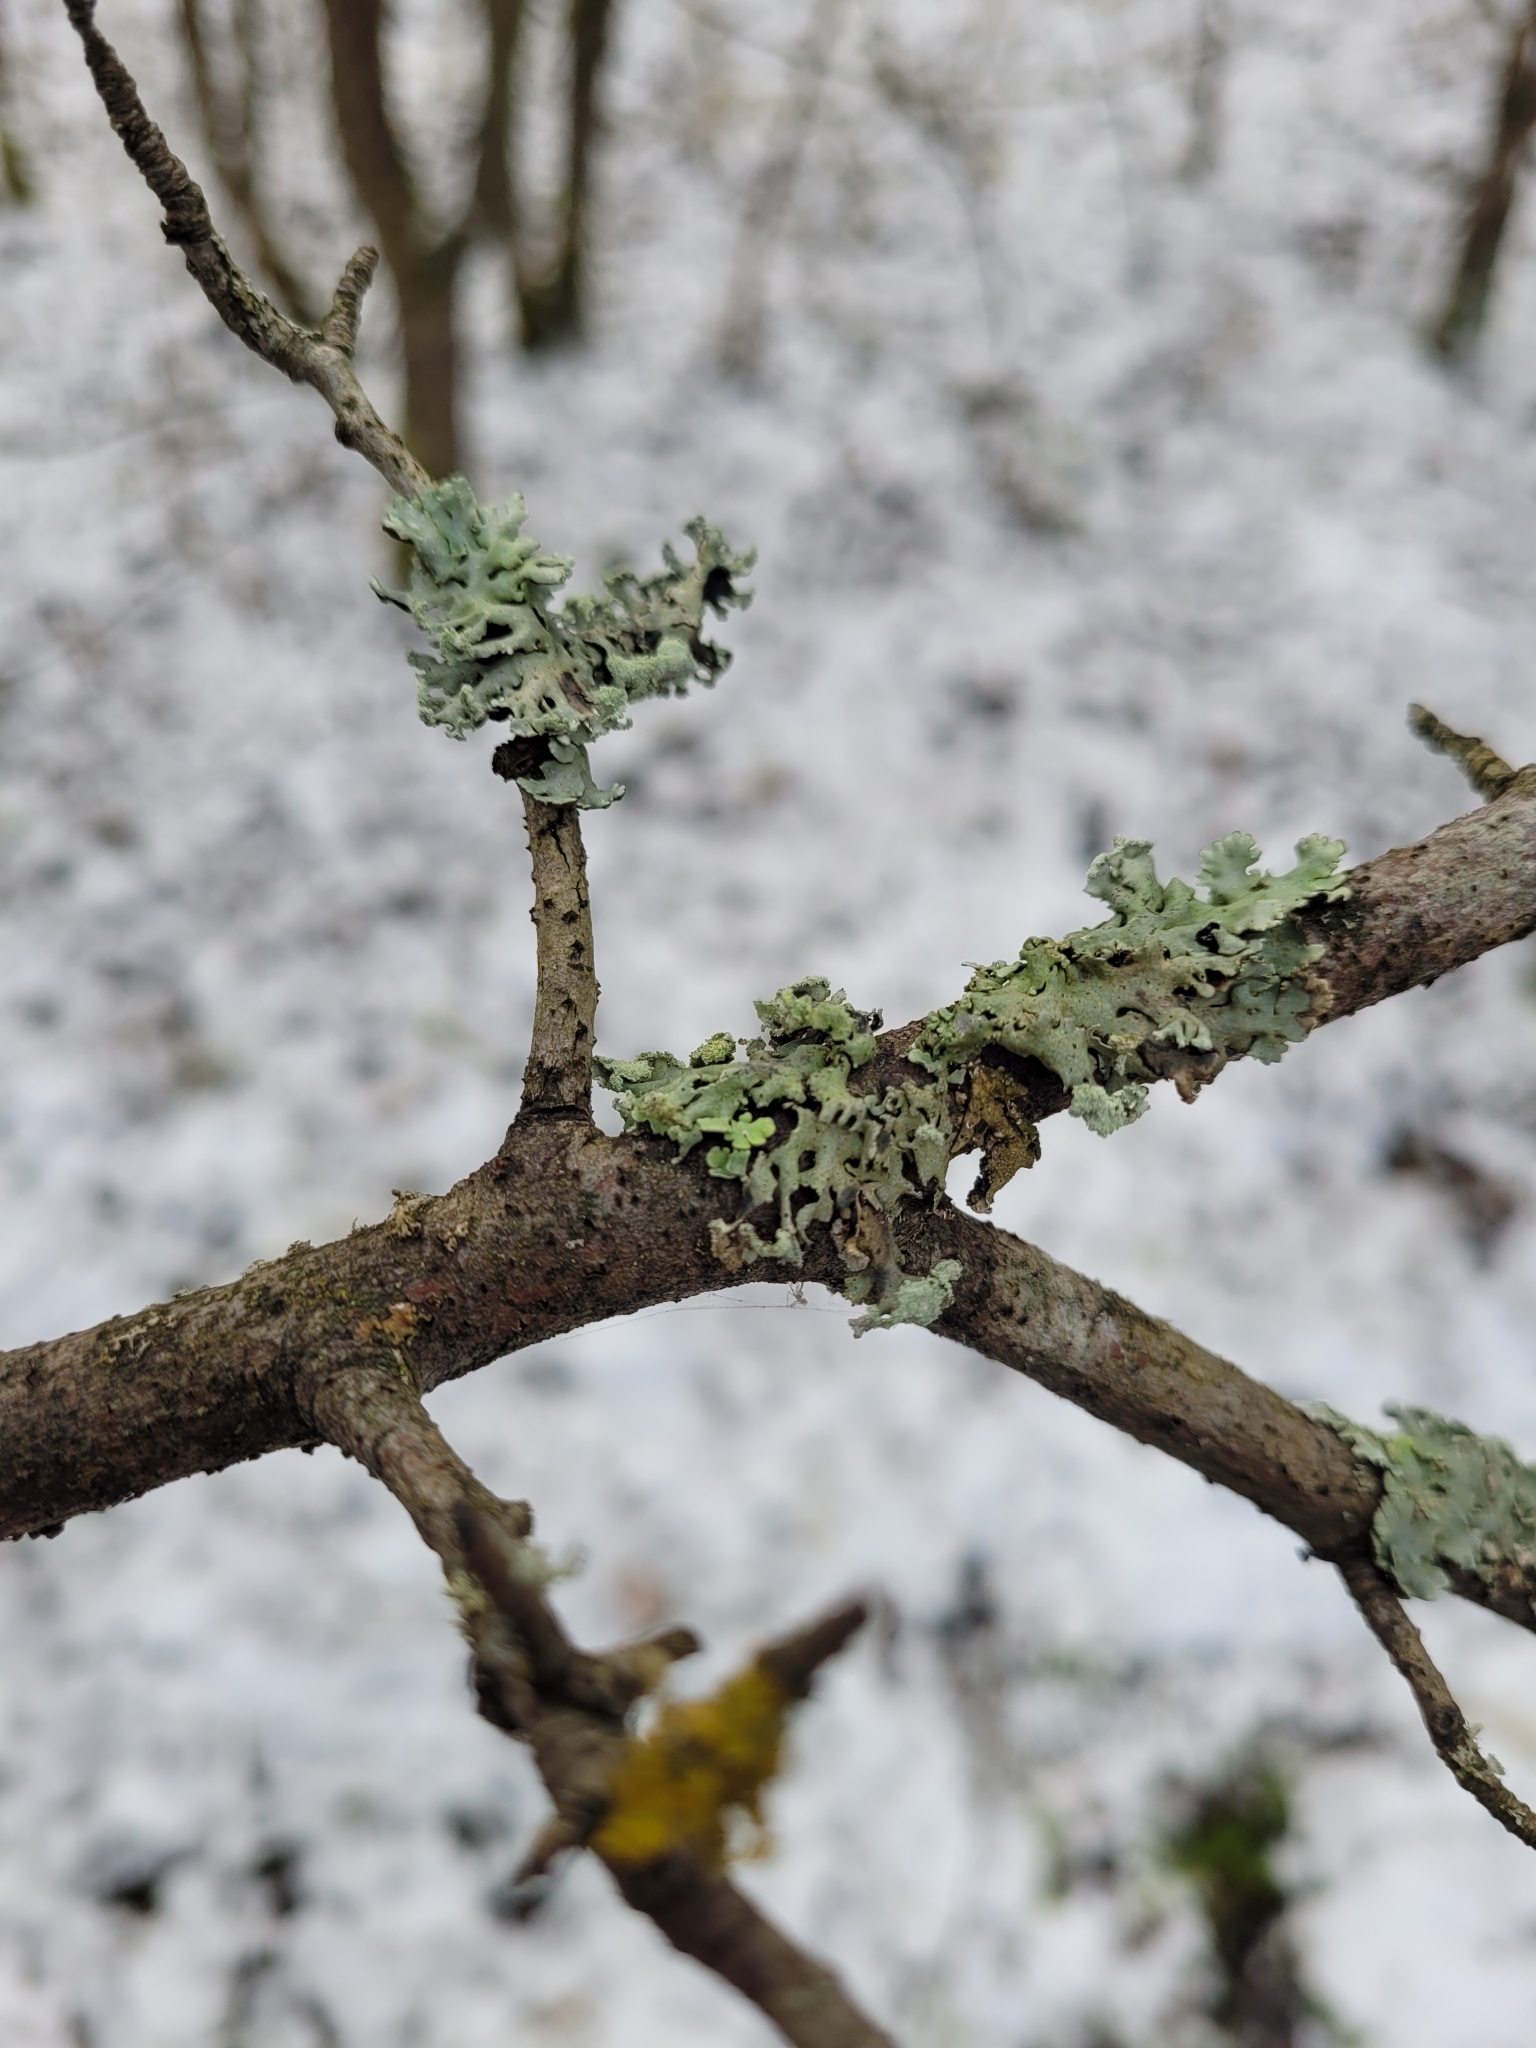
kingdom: Fungi
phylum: Ascomycota
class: Lecanoromycetes
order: Lecanorales
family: Parmeliaceae
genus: Hypogymnia
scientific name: Hypogymnia physodes
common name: Dark crottle
